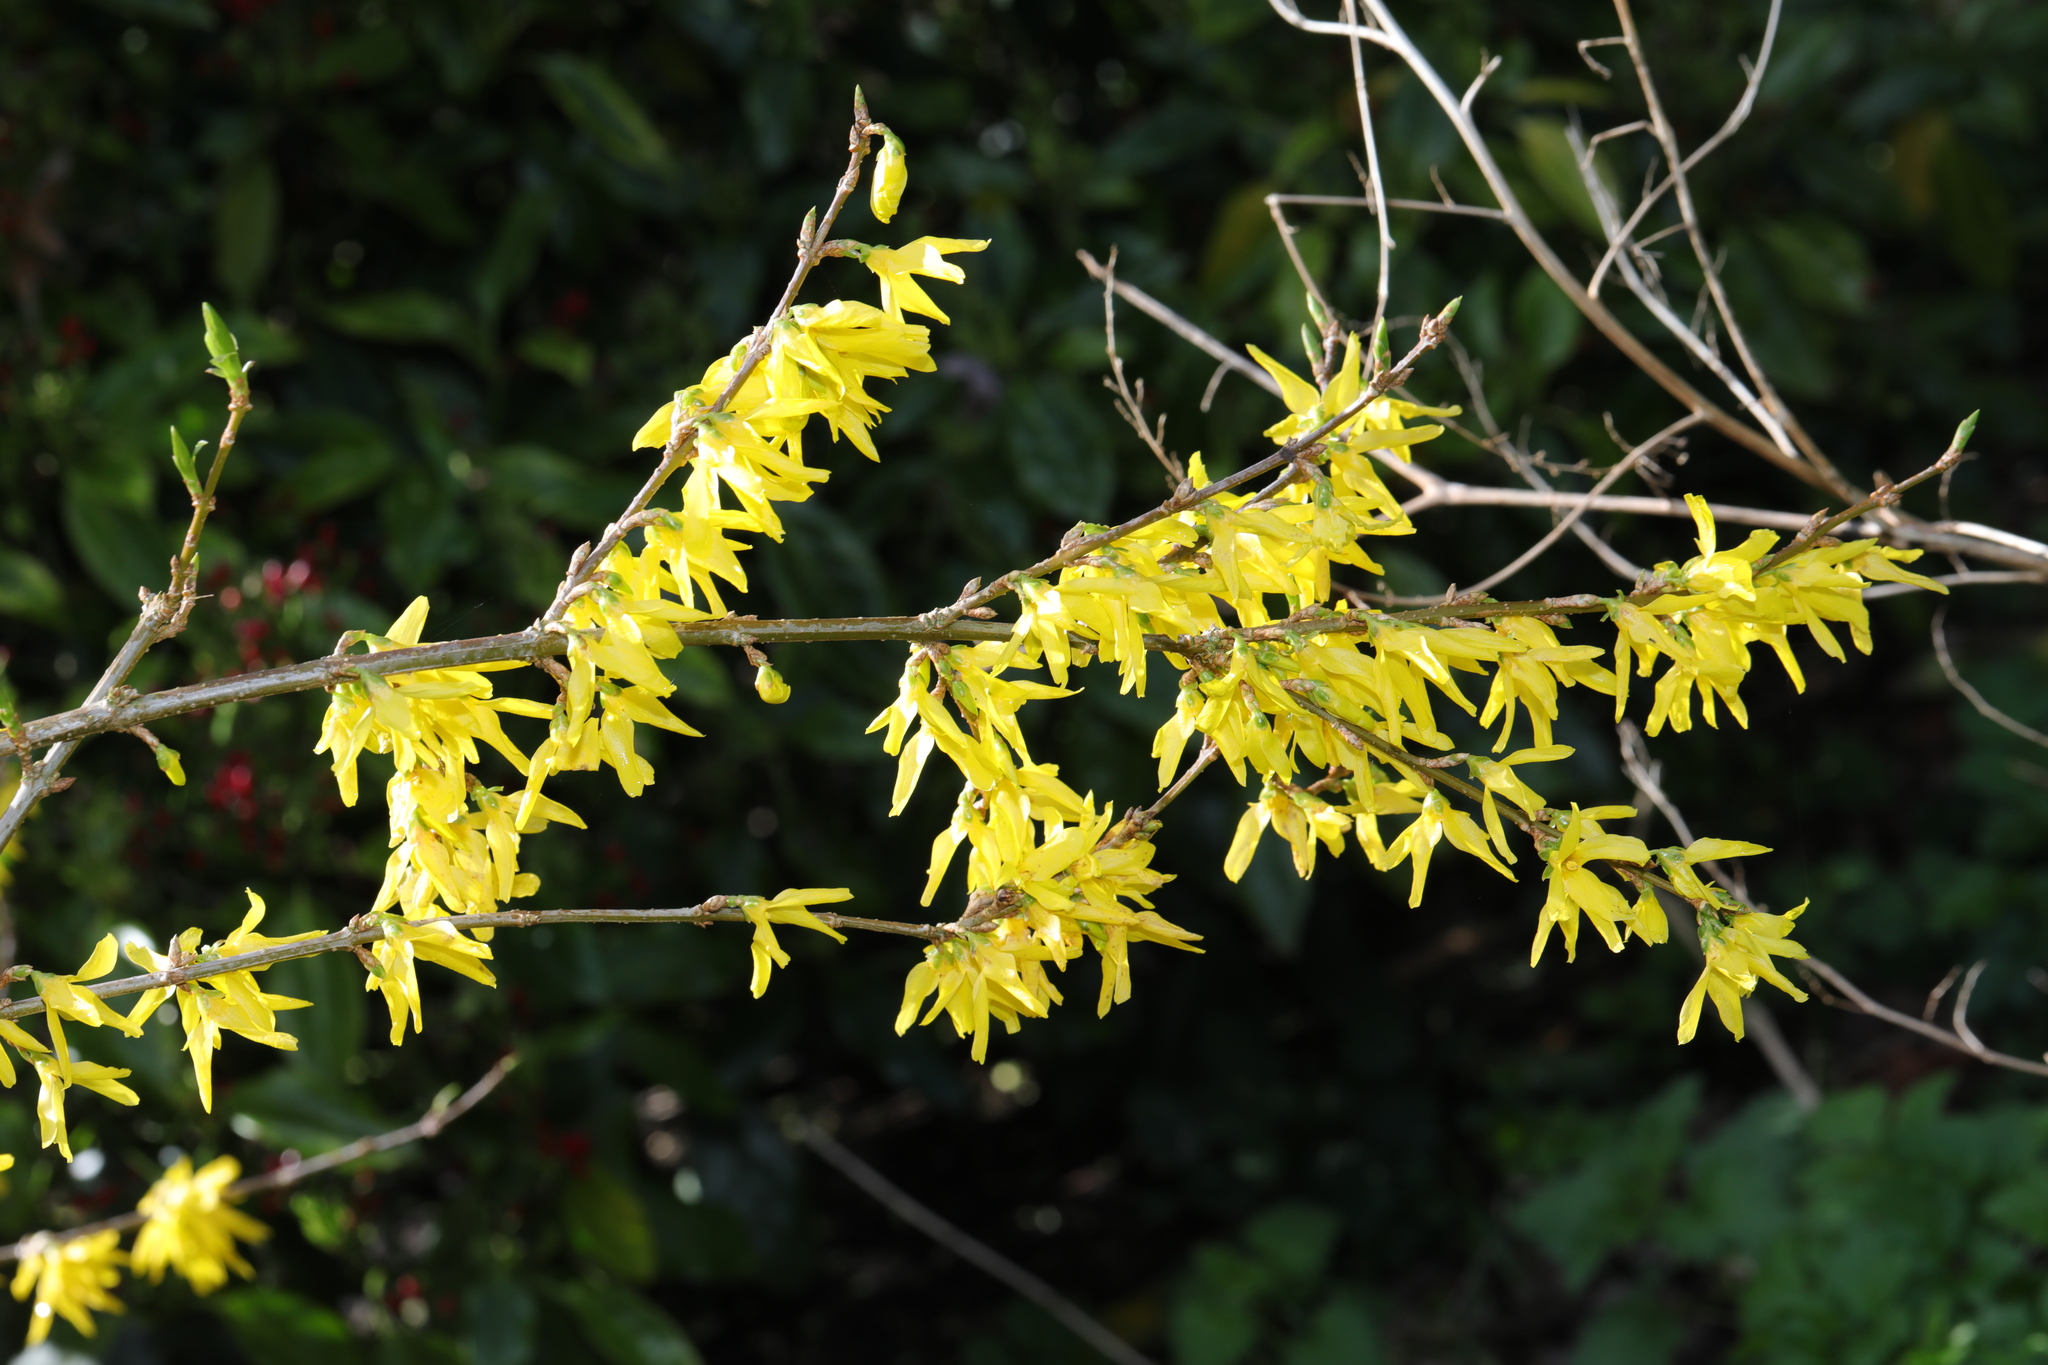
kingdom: Plantae
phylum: Tracheophyta
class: Magnoliopsida
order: Lamiales
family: Oleaceae
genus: Forsythia
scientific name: Forsythia intermedia
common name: Forsythia
